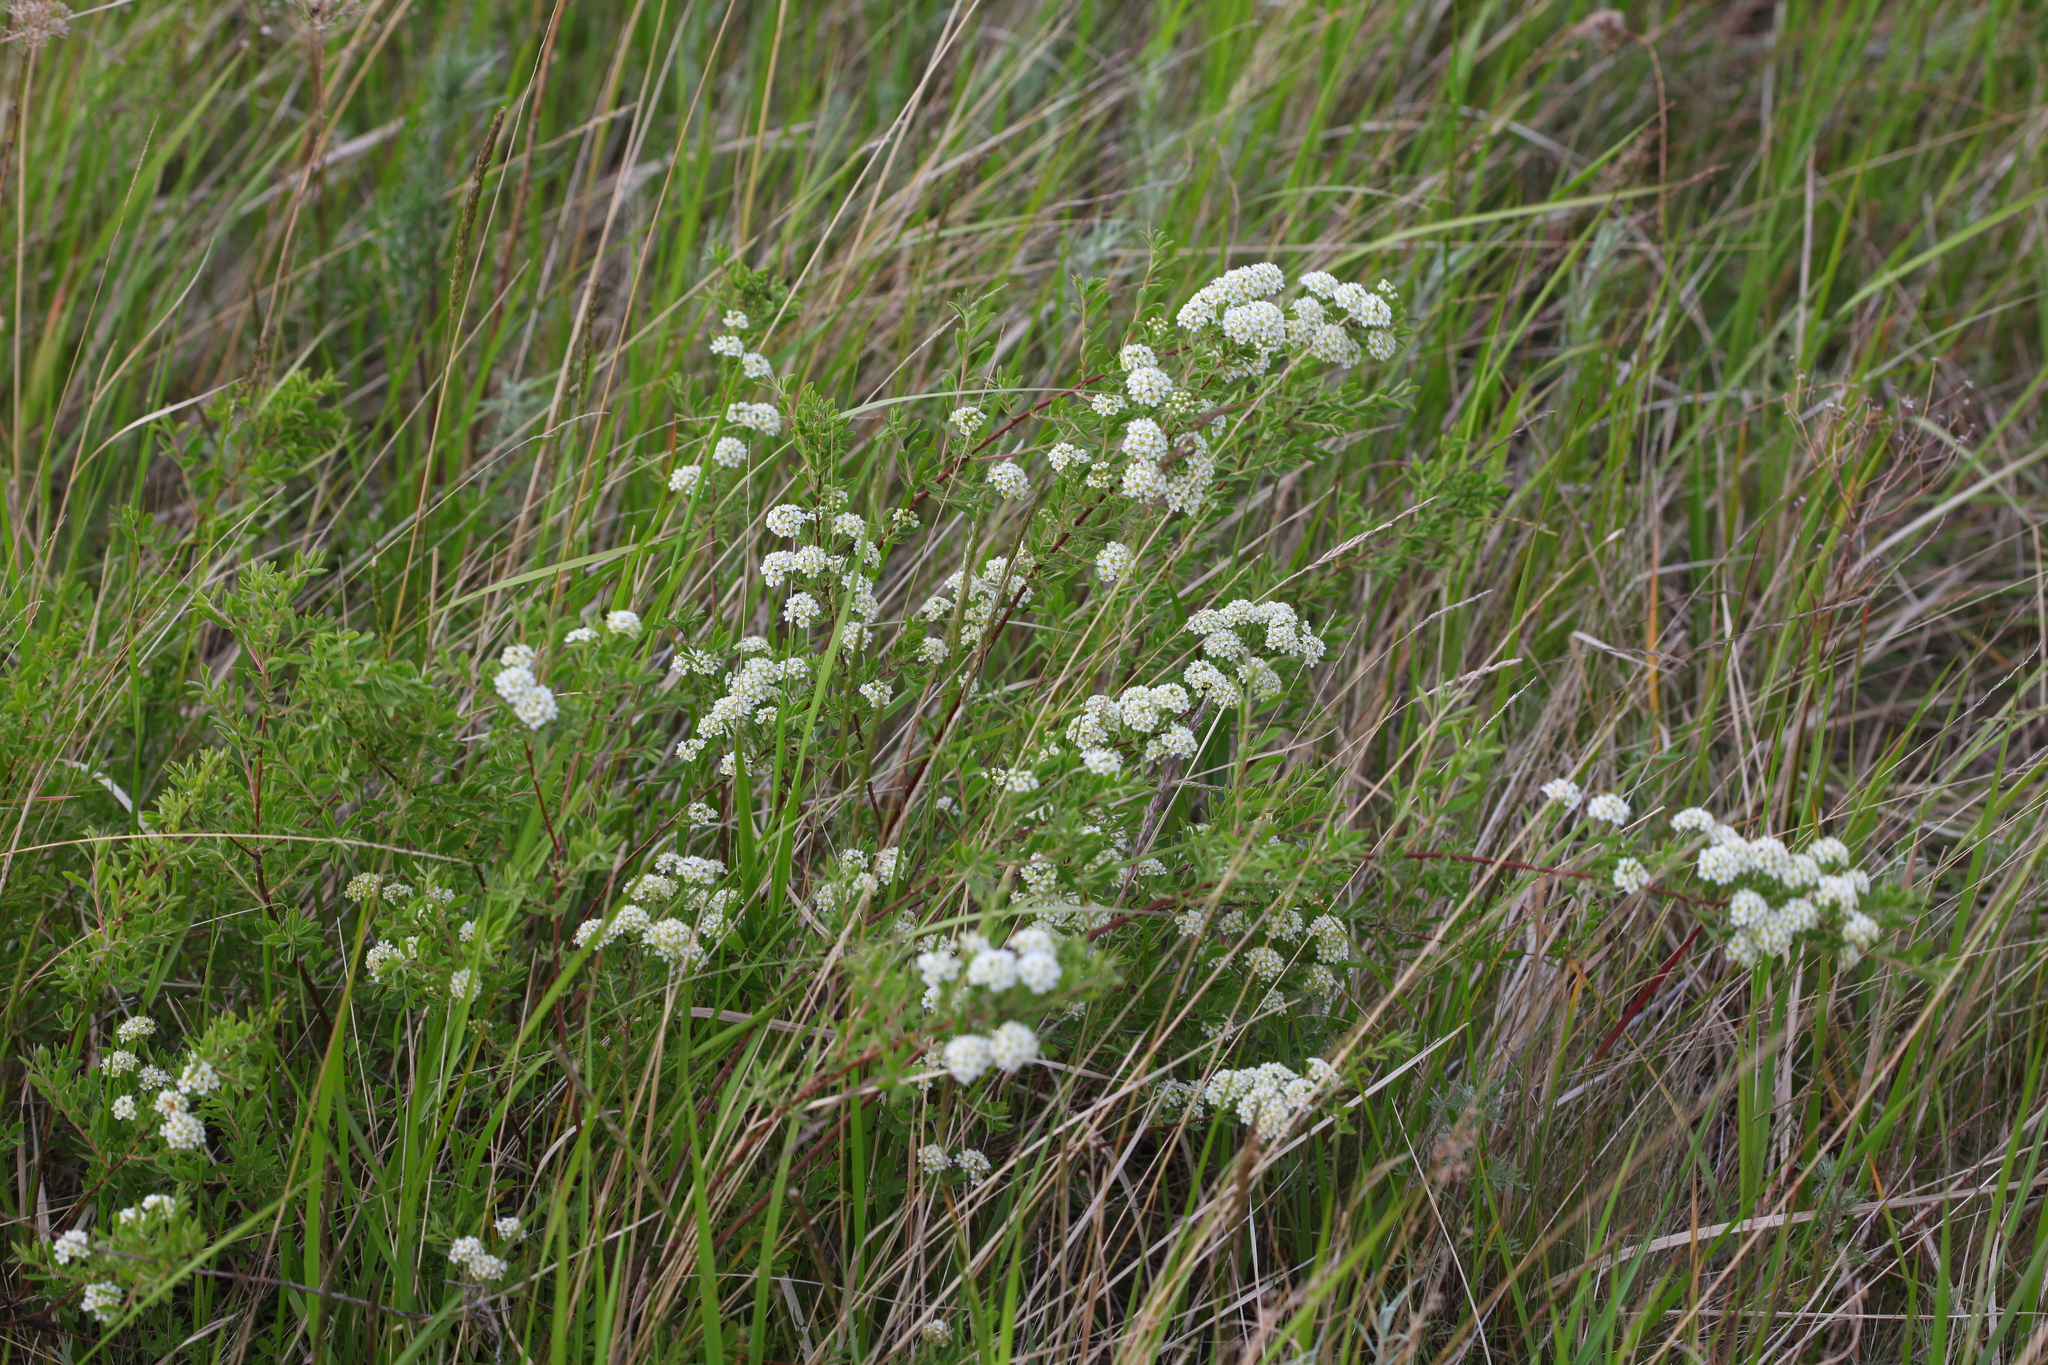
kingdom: Plantae
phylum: Tracheophyta
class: Magnoliopsida
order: Rosales
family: Rosaceae
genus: Spiraea
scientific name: Spiraea crenata
